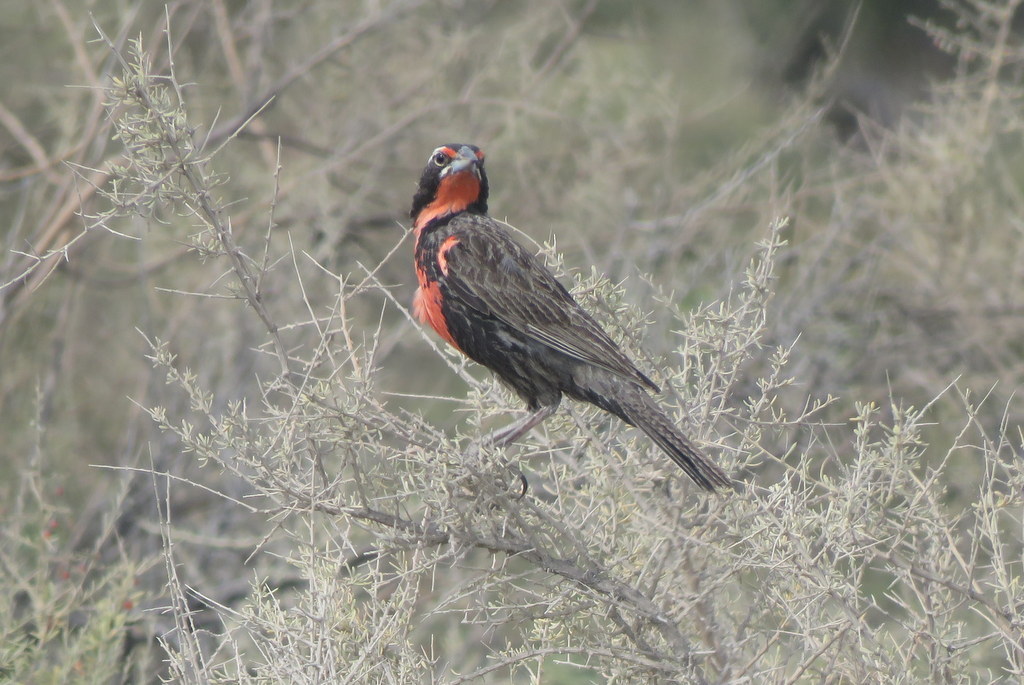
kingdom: Animalia
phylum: Chordata
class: Aves
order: Passeriformes
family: Icteridae
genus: Sturnella
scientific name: Sturnella loyca
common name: Long-tailed meadowlark
